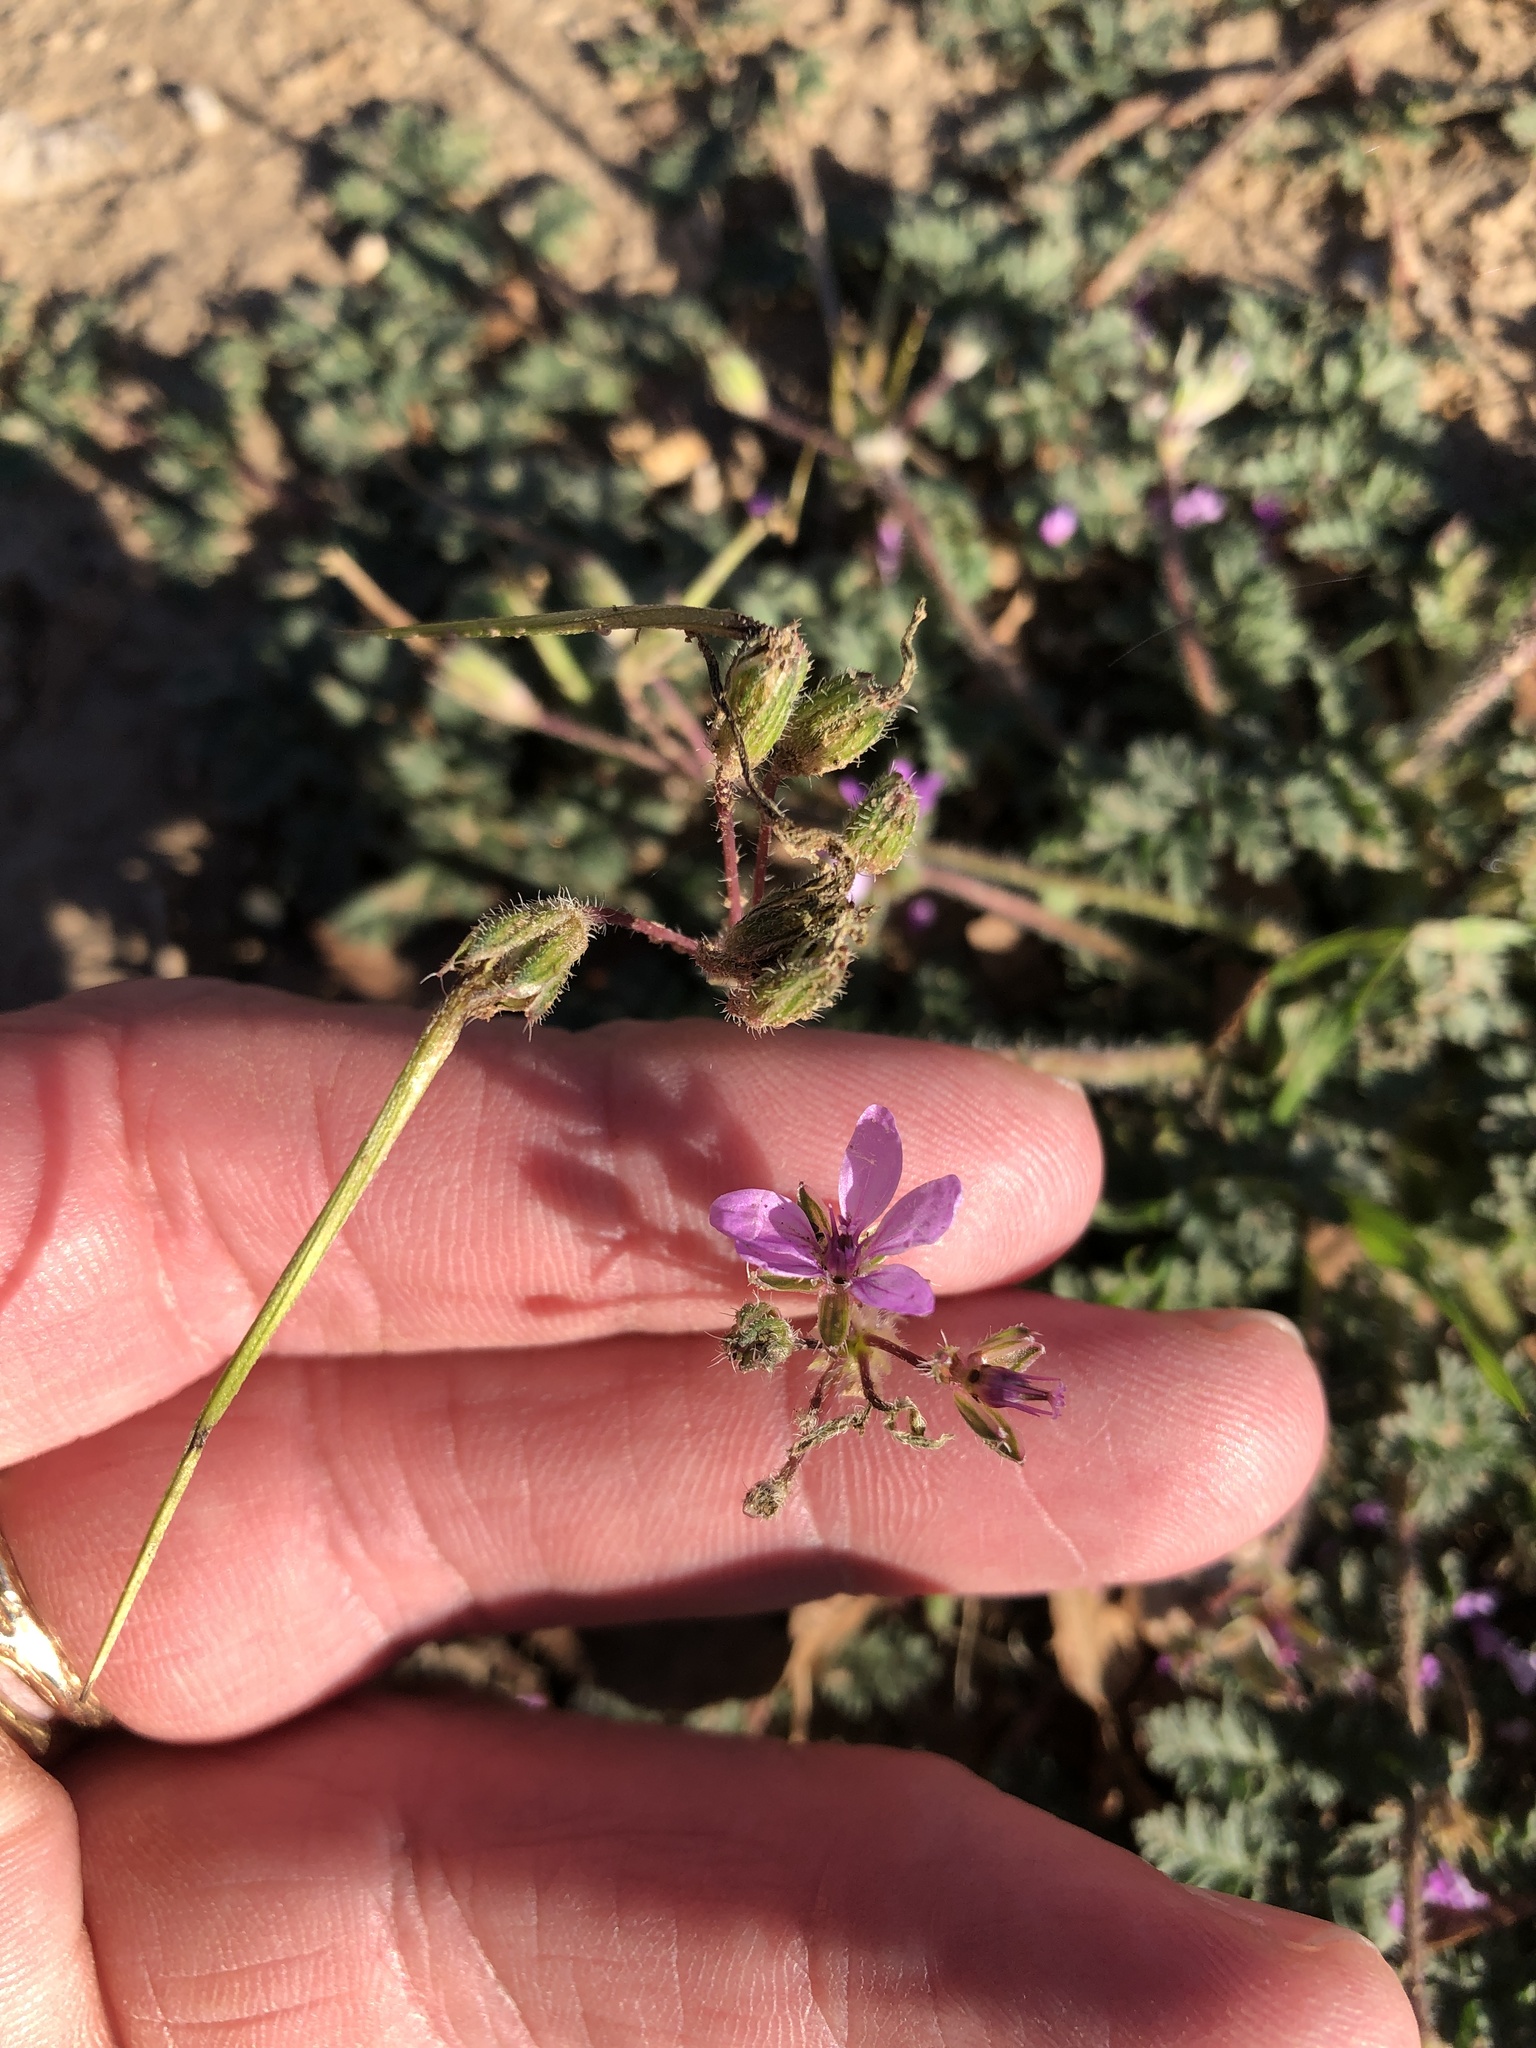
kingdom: Plantae
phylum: Tracheophyta
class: Magnoliopsida
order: Geraniales
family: Geraniaceae
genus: Erodium
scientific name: Erodium cicutarium
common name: Common stork's-bill
